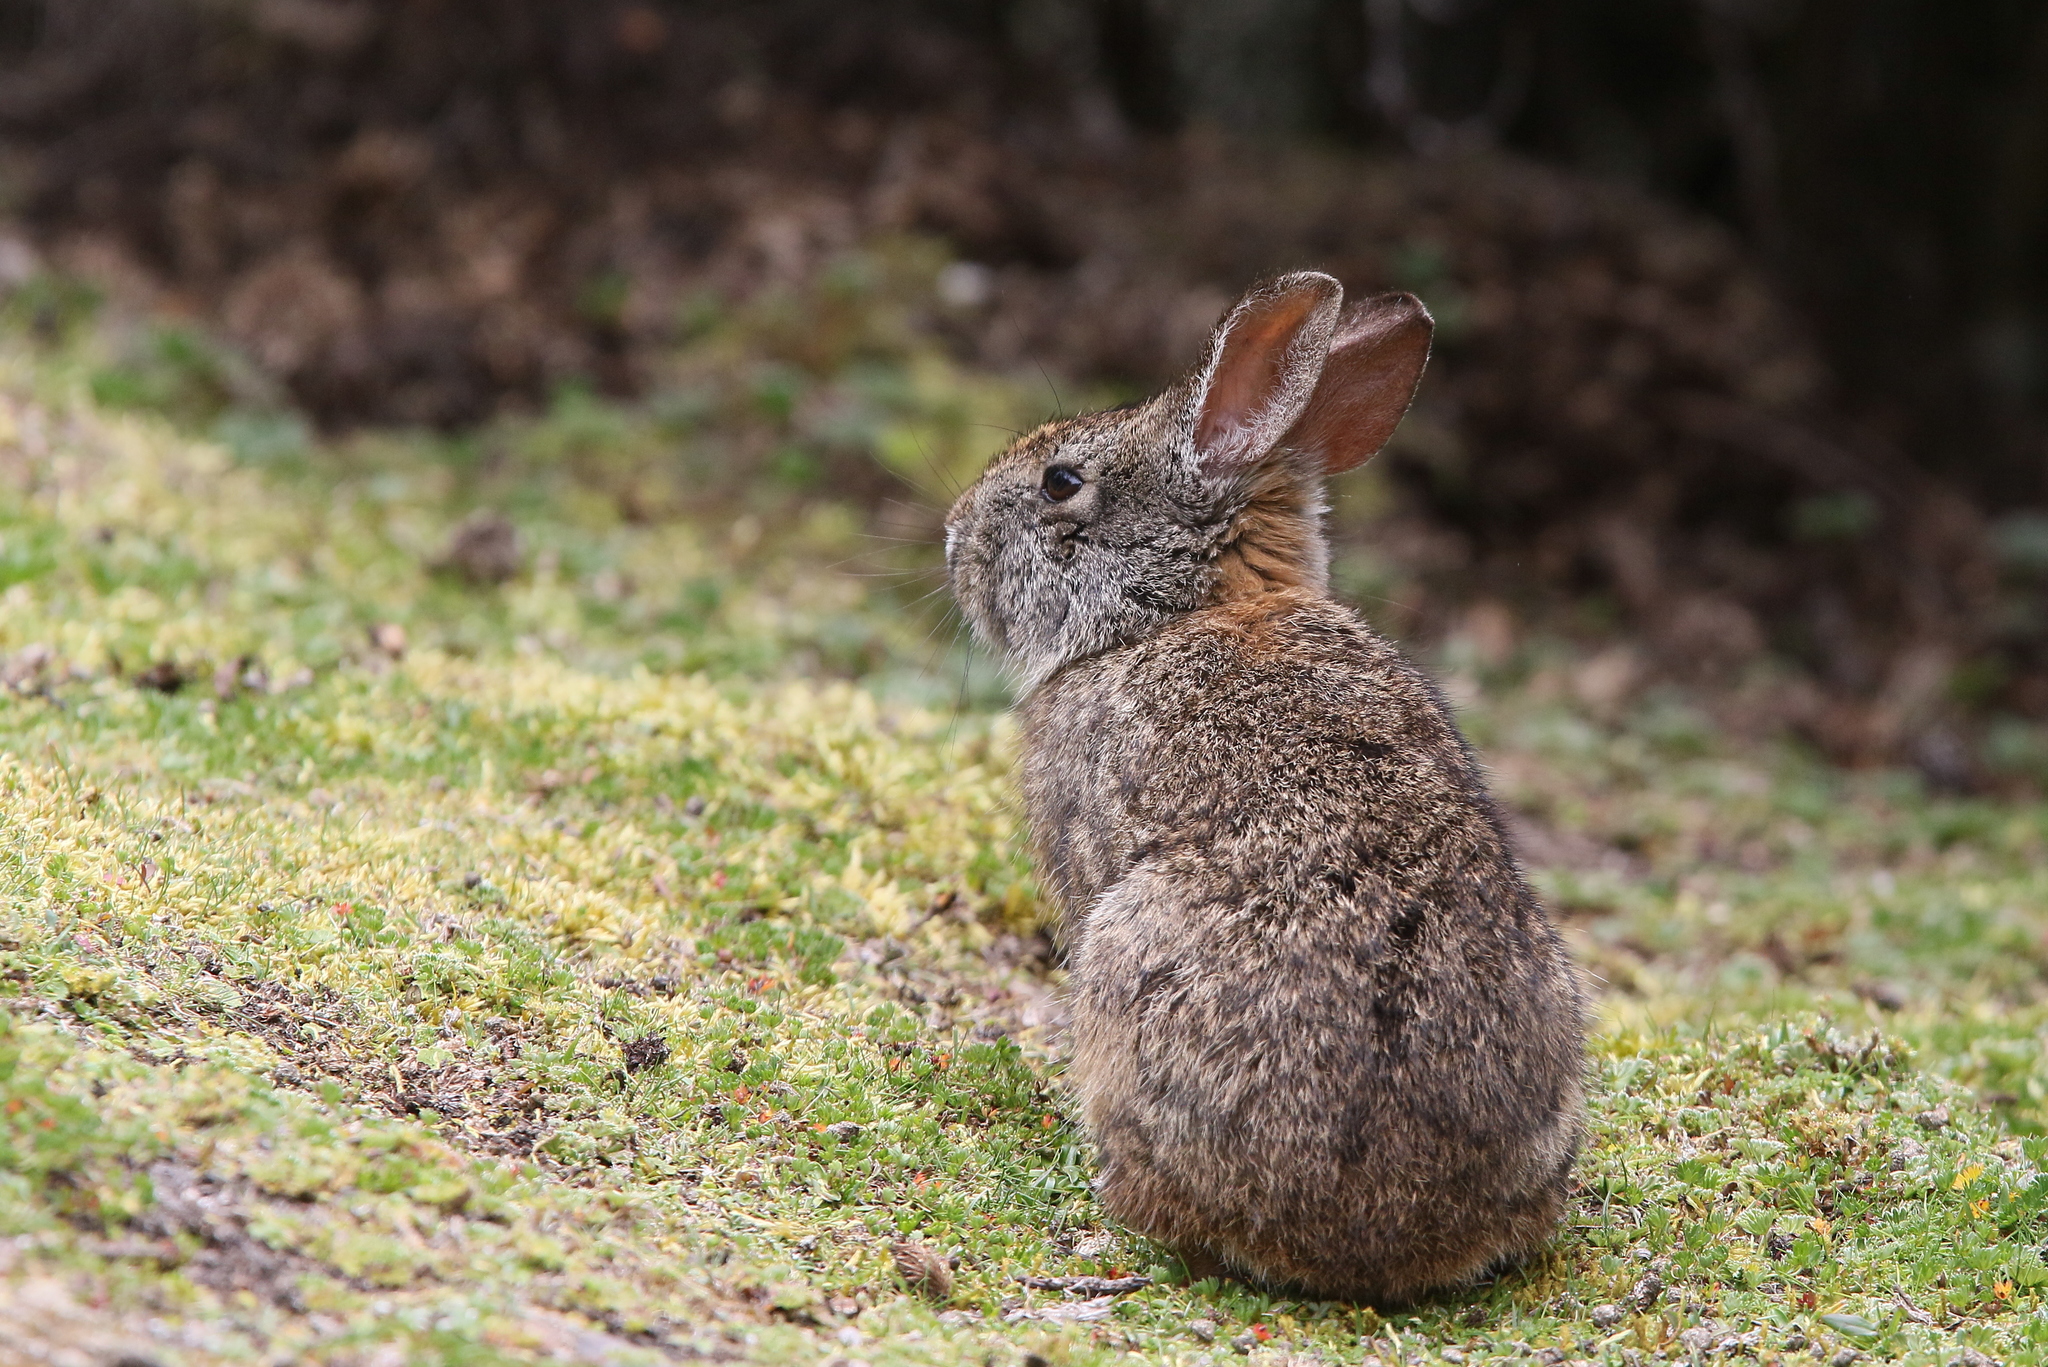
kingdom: Animalia
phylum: Chordata
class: Mammalia
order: Lagomorpha
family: Leporidae
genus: Sylvilagus
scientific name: Sylvilagus andinus
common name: Andean cottontail
